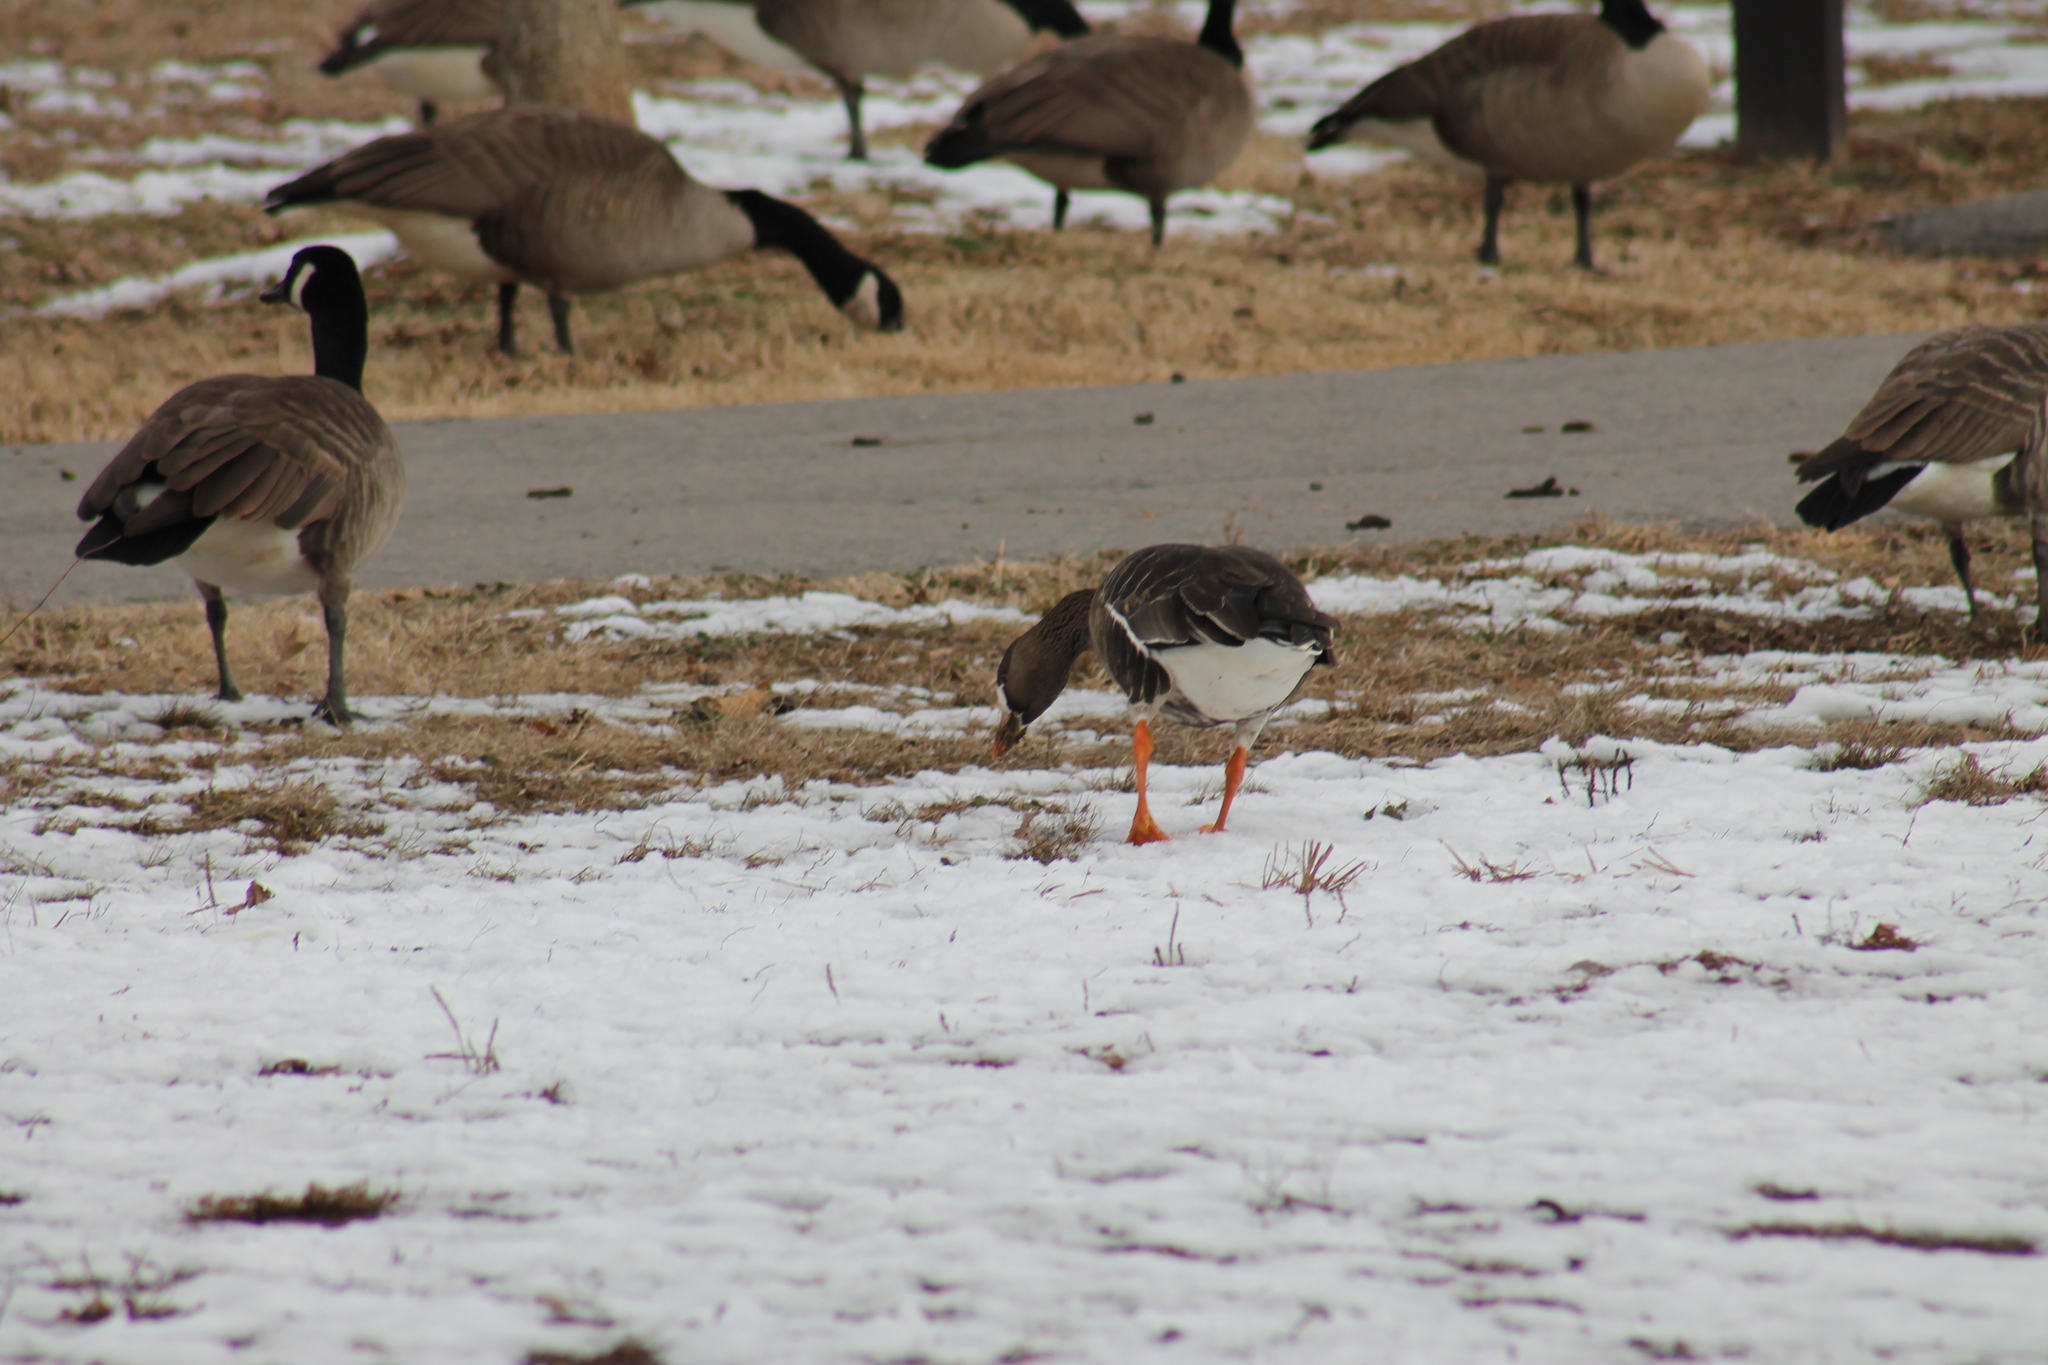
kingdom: Animalia
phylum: Chordata
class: Aves
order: Anseriformes
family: Anatidae
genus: Anser
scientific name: Anser albifrons
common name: Greater white-fronted goose
